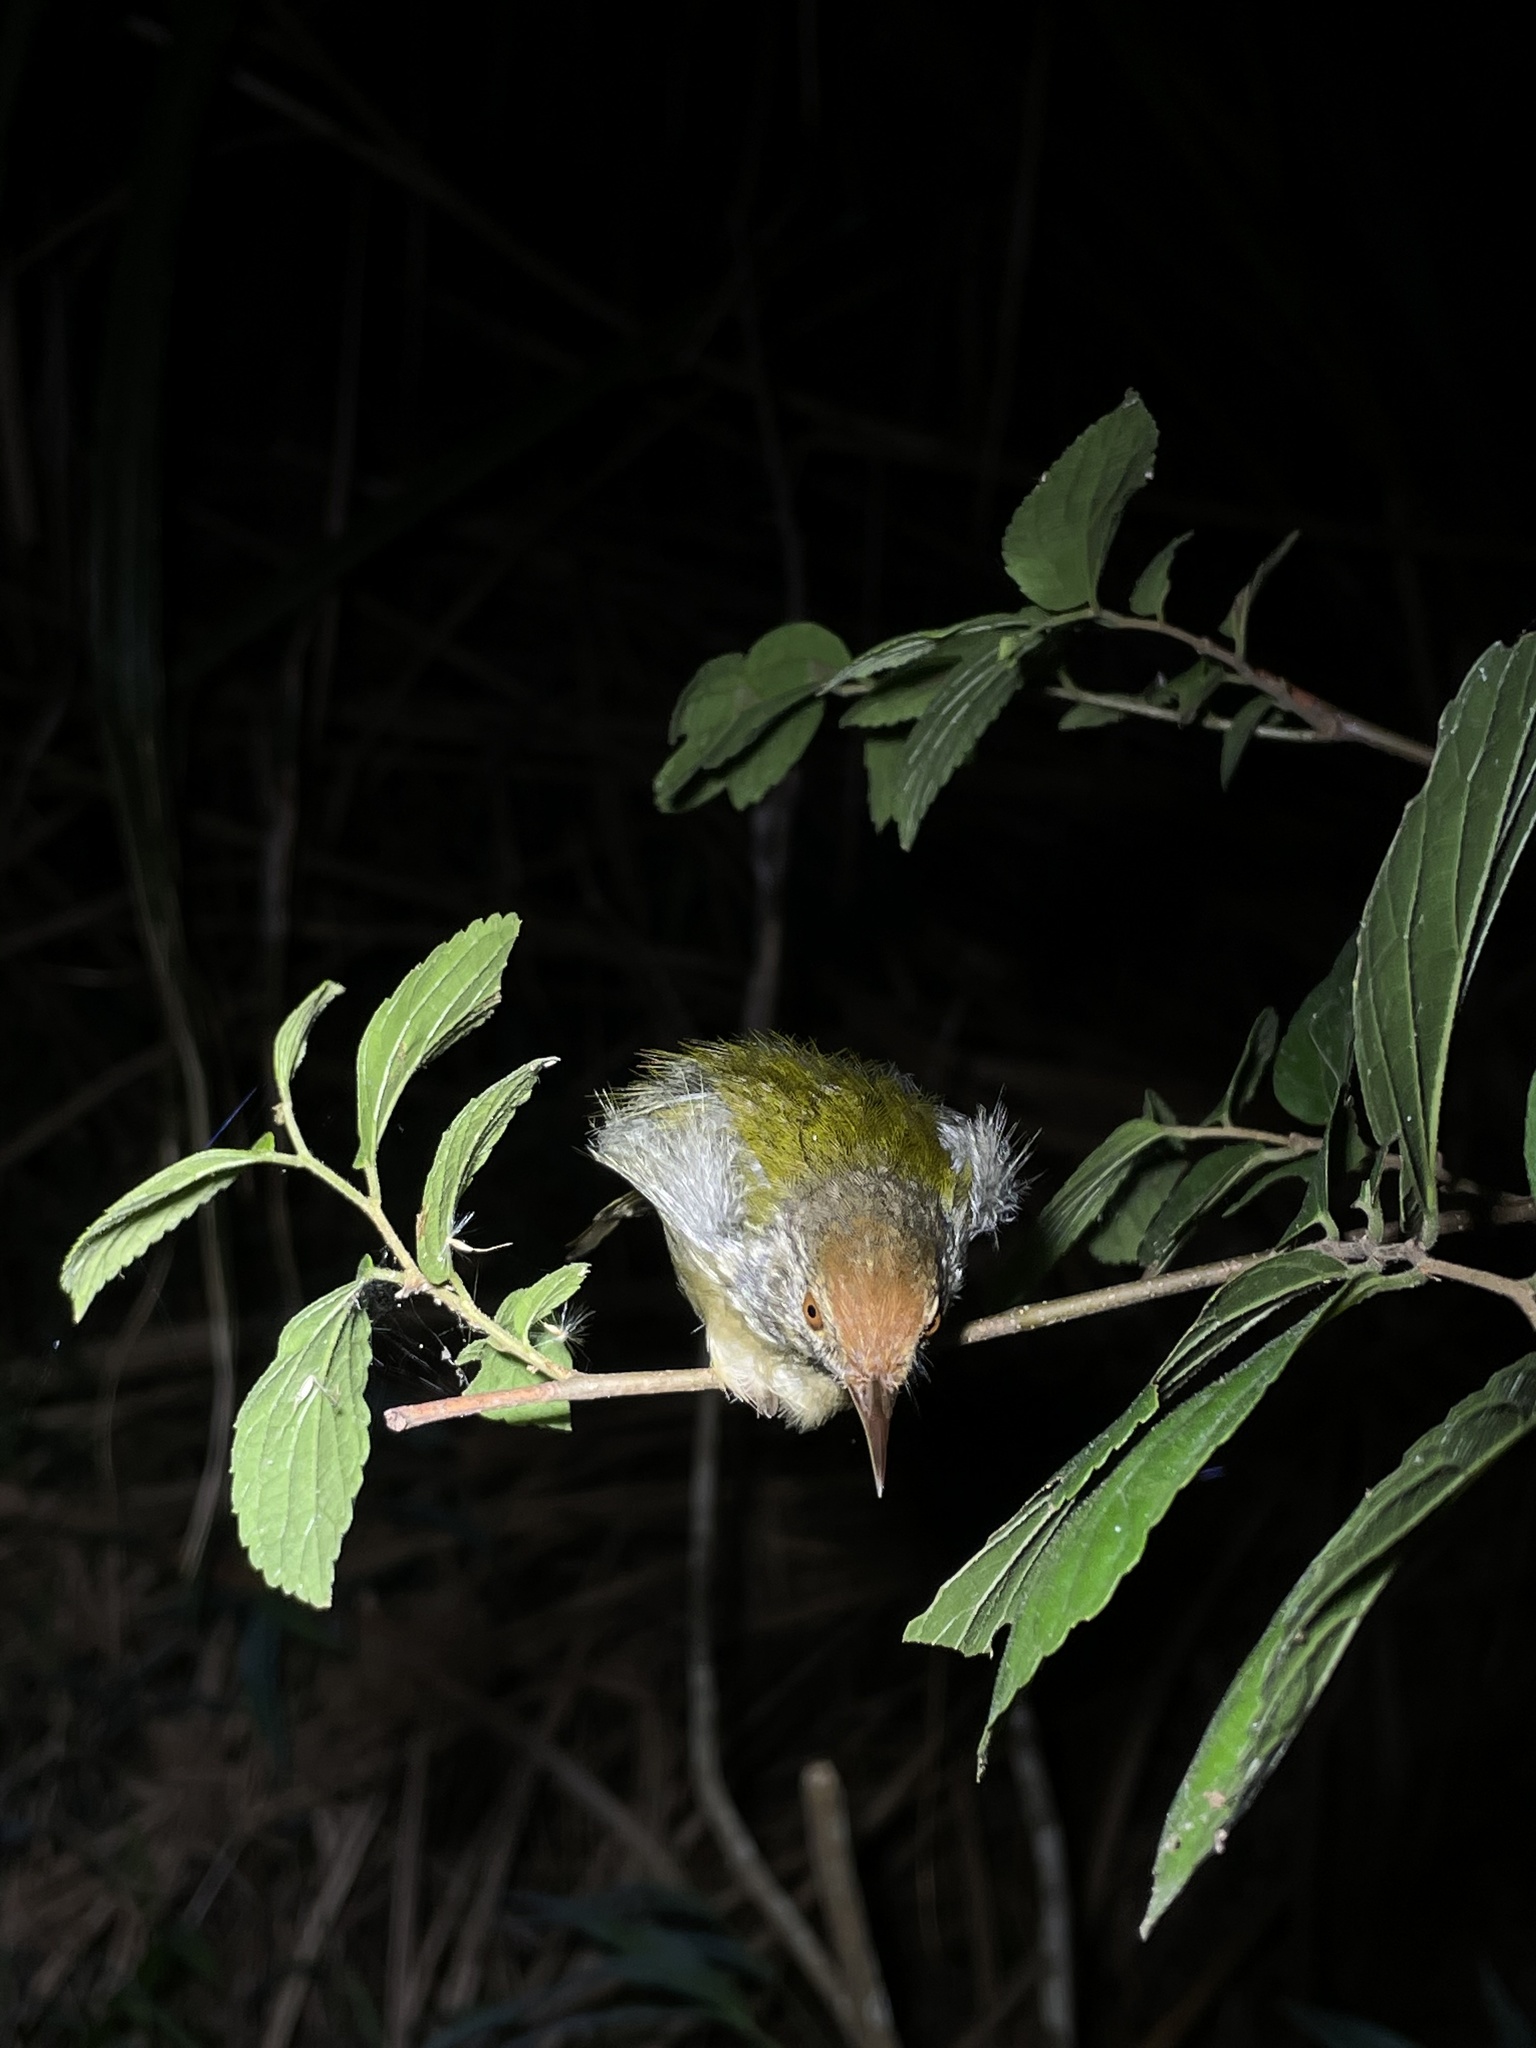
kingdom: Animalia
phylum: Chordata
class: Aves
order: Passeriformes
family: Cisticolidae
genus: Orthotomus
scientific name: Orthotomus sutorius
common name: Common tailorbird
